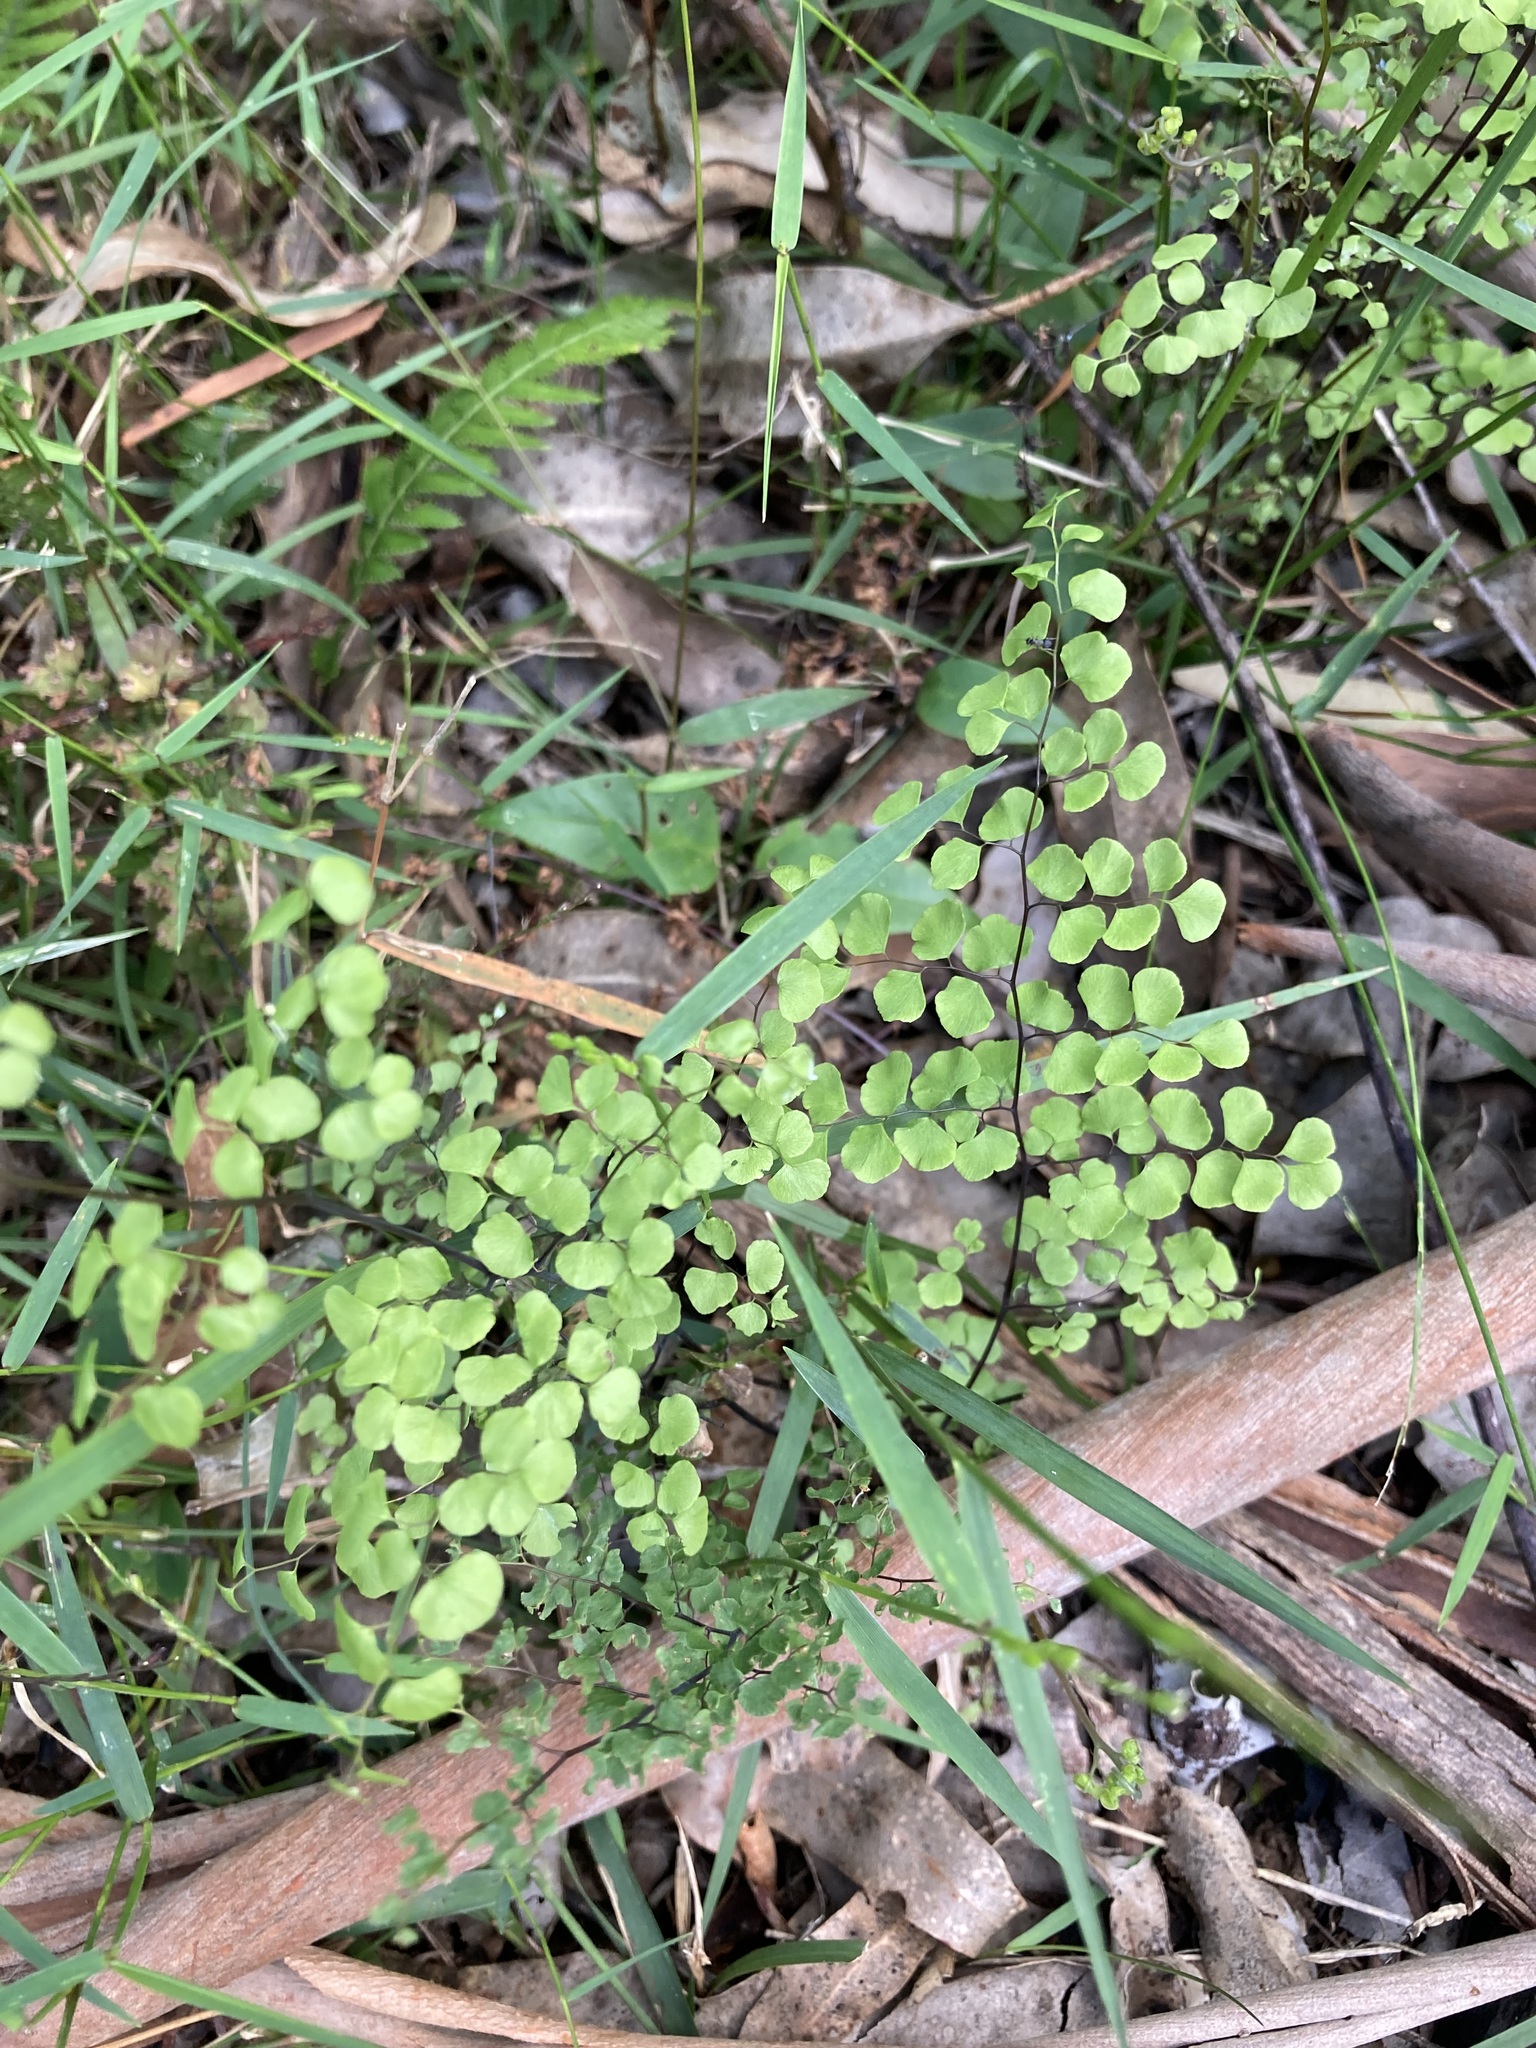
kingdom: Plantae
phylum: Tracheophyta
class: Polypodiopsida
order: Polypodiales
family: Pteridaceae
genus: Adiantum
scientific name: Adiantum aethiopicum
